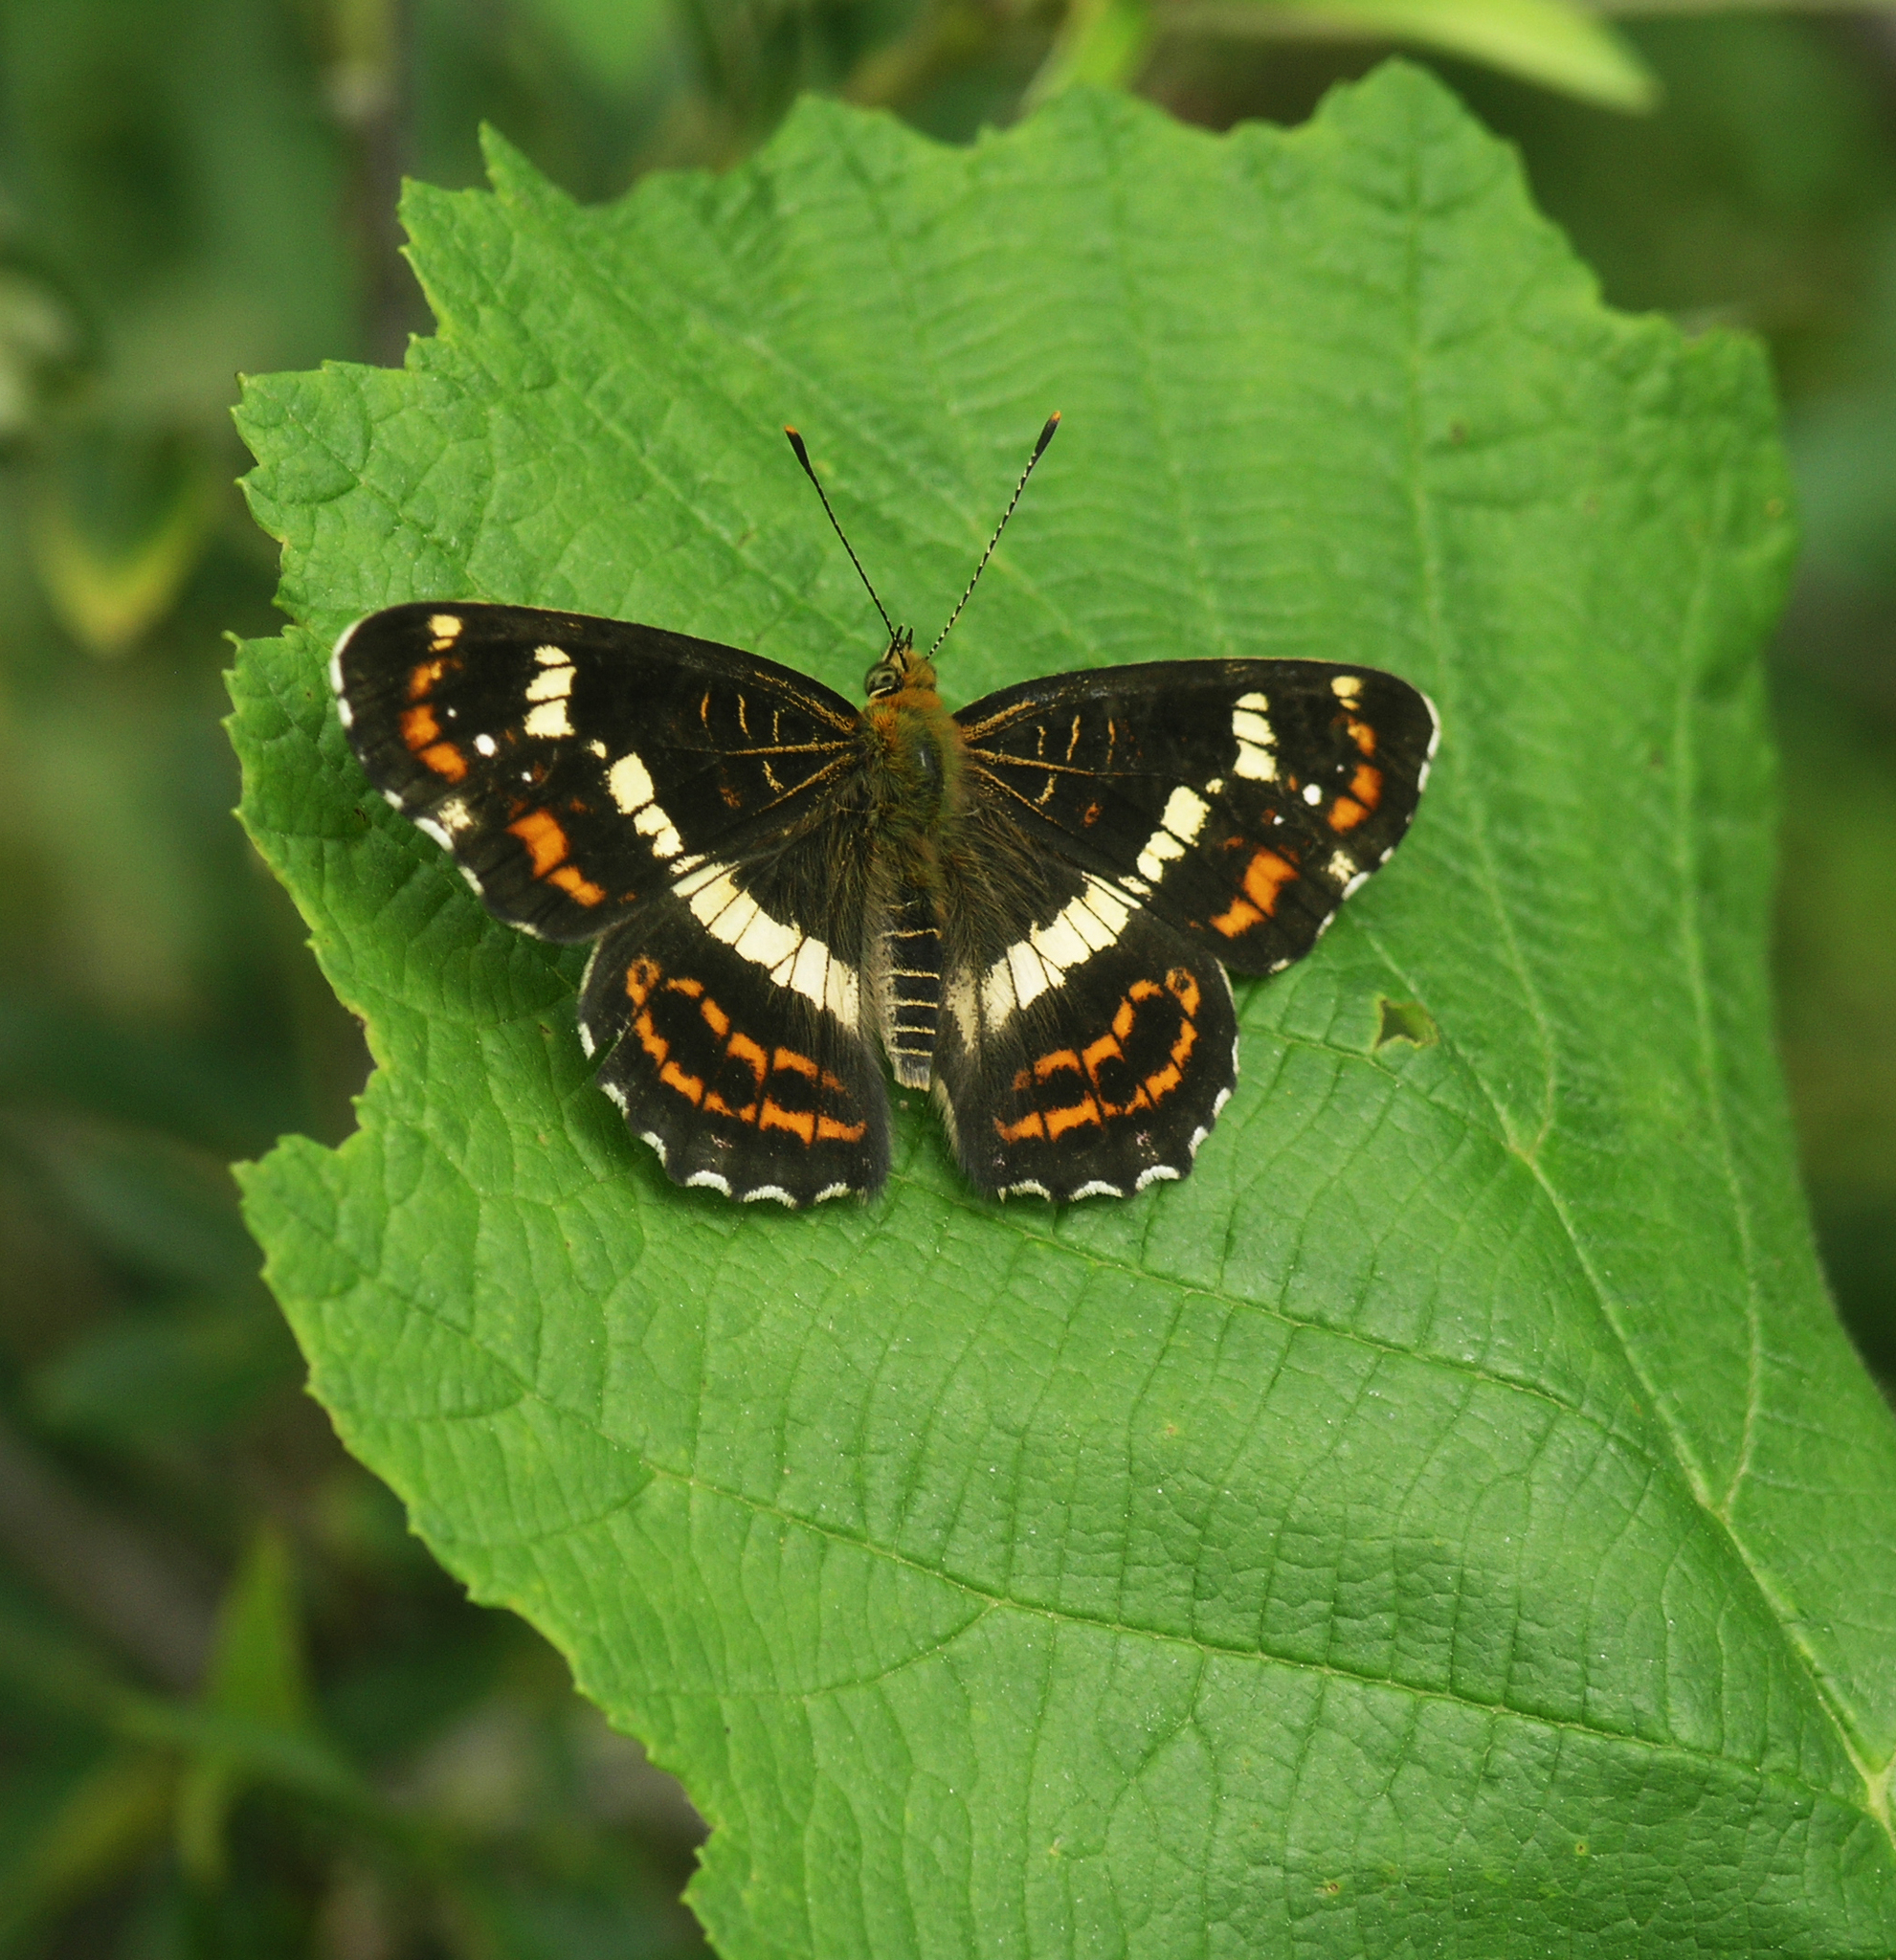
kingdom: Animalia
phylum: Arthropoda
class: Insecta
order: Lepidoptera
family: Nymphalidae
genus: Araschnia
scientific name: Araschnia burejana
